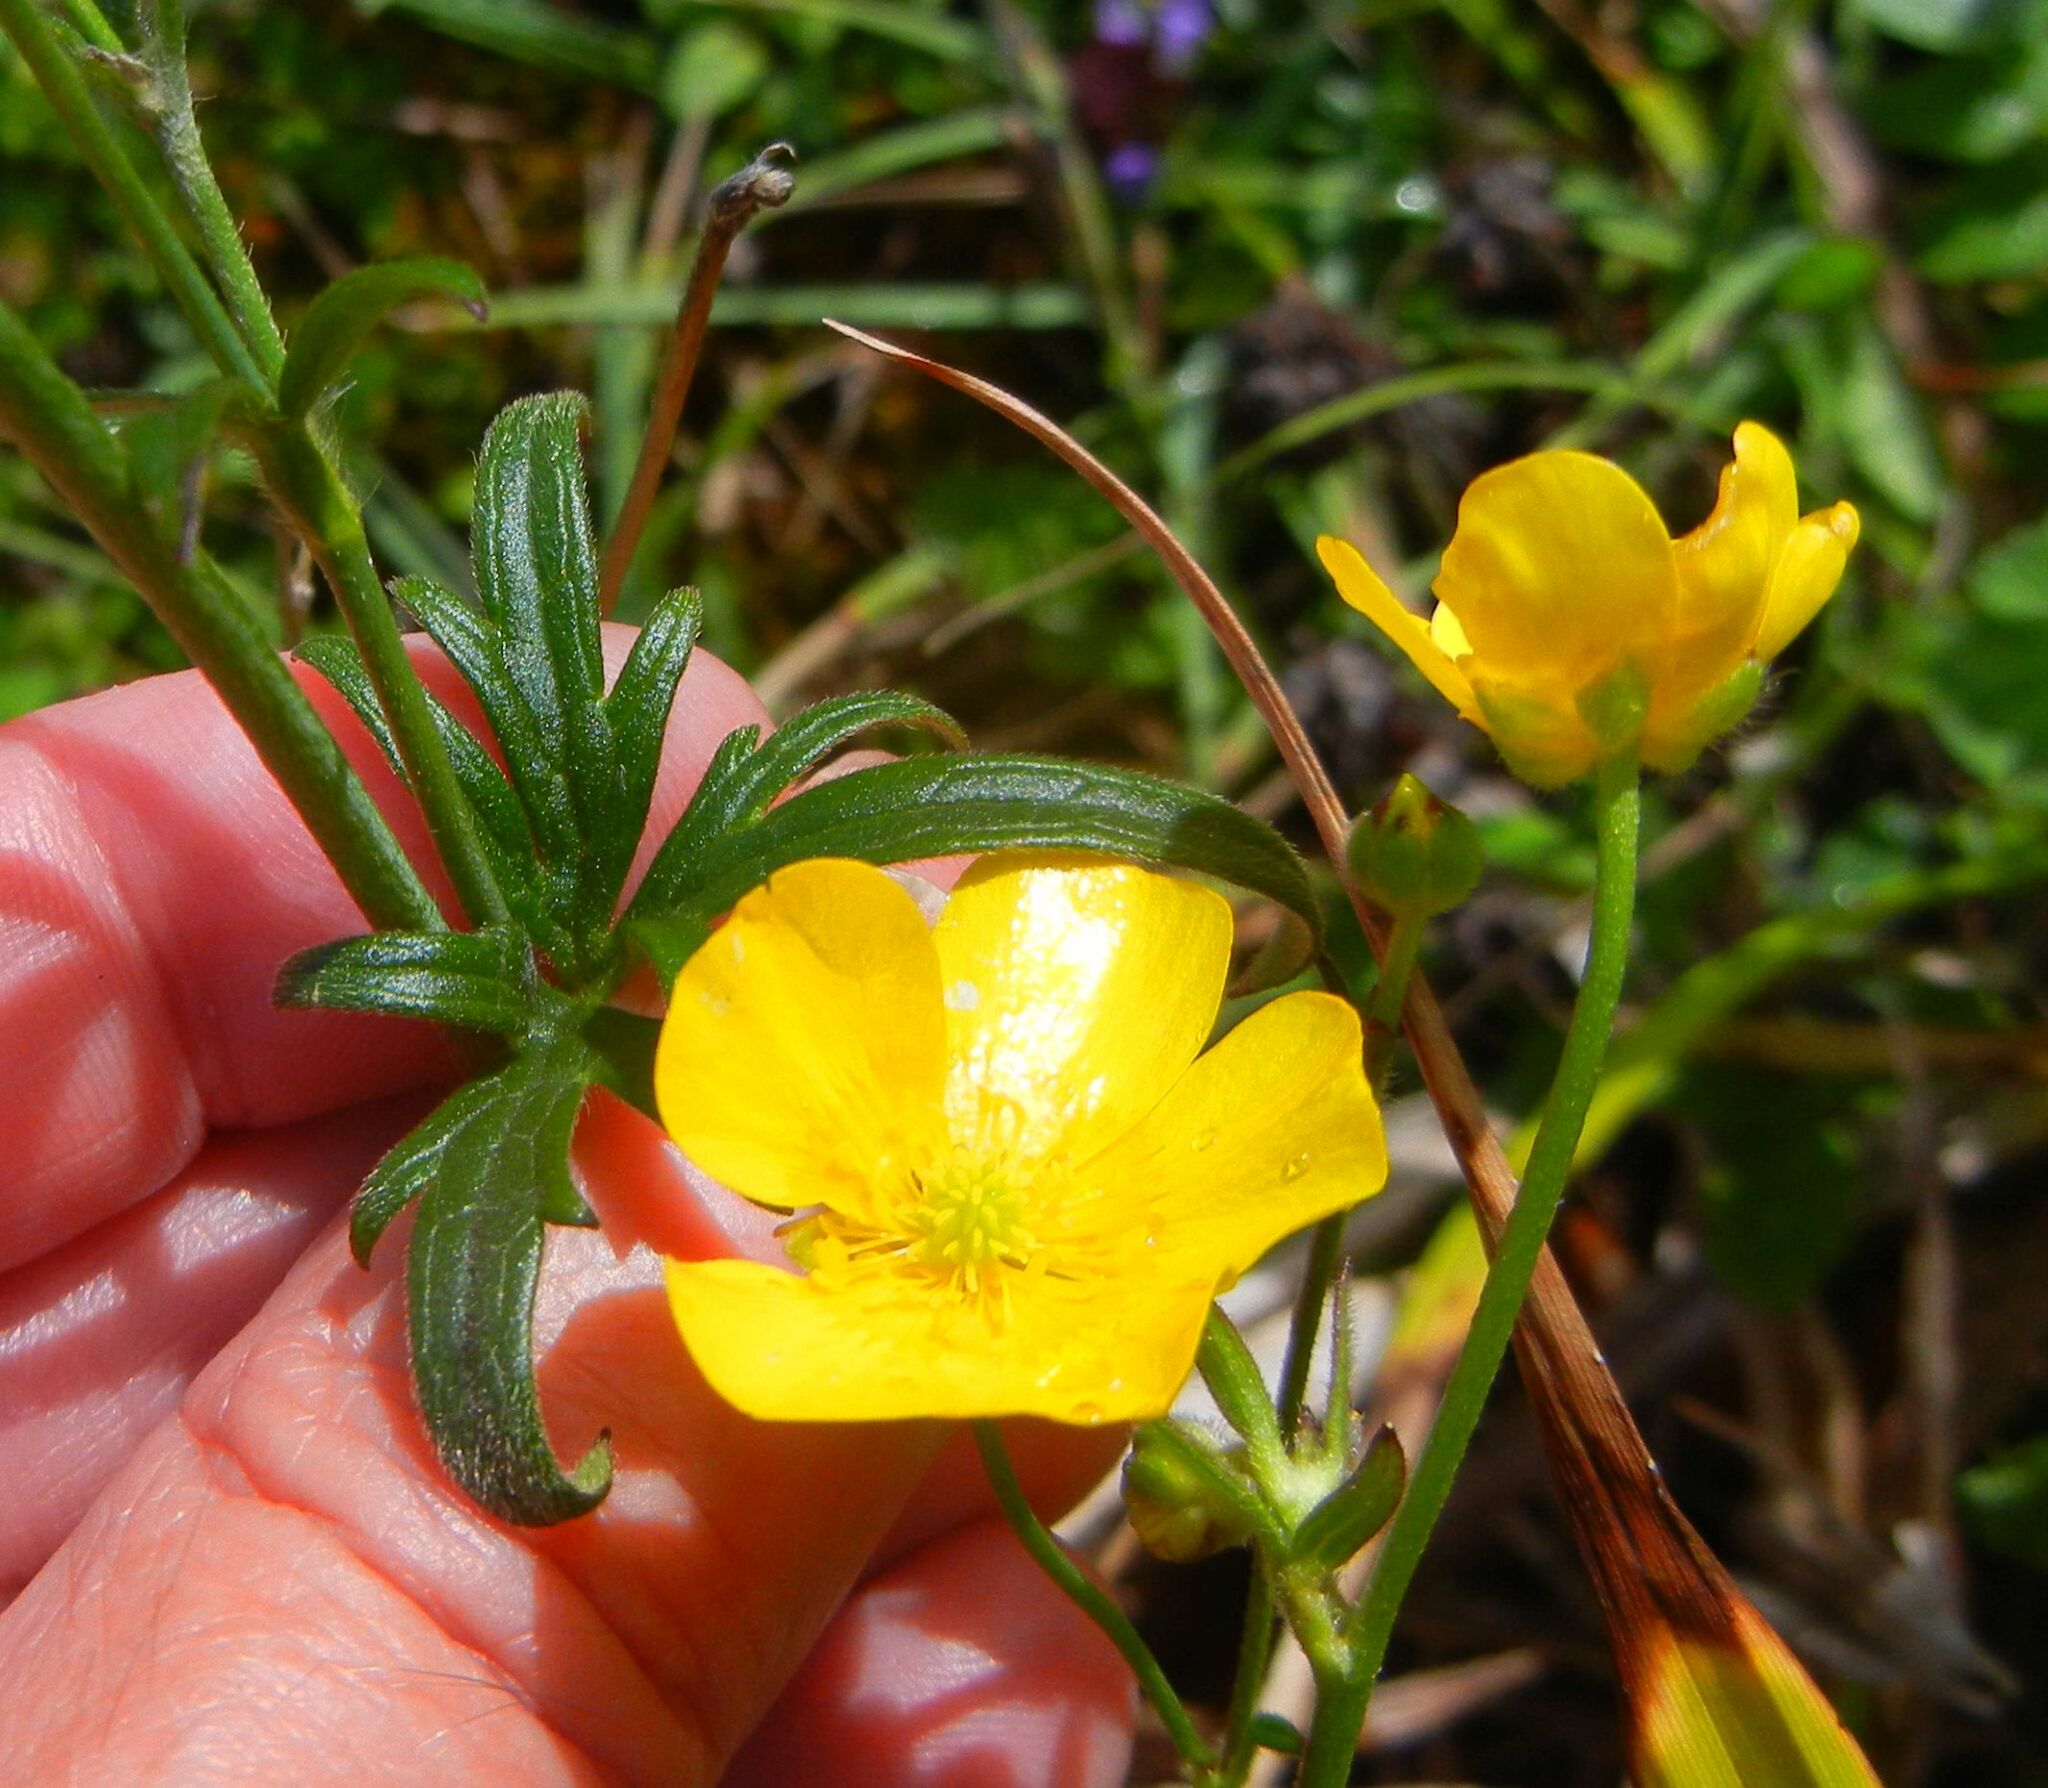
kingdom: Plantae
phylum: Tracheophyta
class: Magnoliopsida
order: Ranunculales
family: Ranunculaceae
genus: Ranunculus
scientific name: Ranunculus acris
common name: Meadow buttercup
